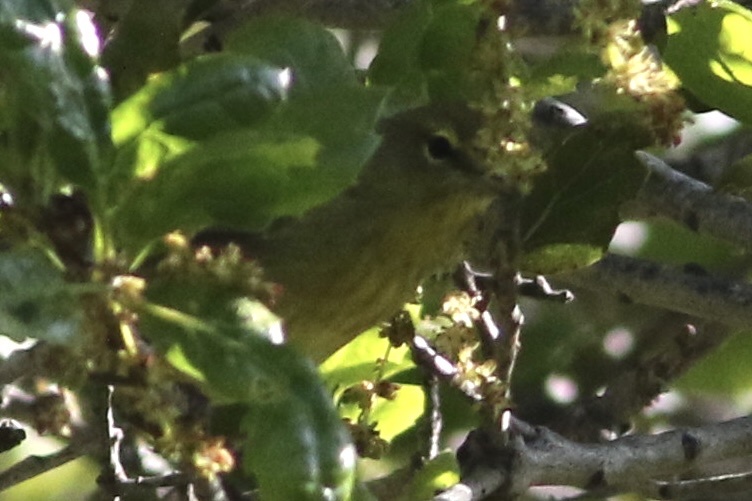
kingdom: Animalia
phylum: Chordata
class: Aves
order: Passeriformes
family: Parulidae
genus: Leiothlypis
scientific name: Leiothlypis celata
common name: Orange-crowned warbler
